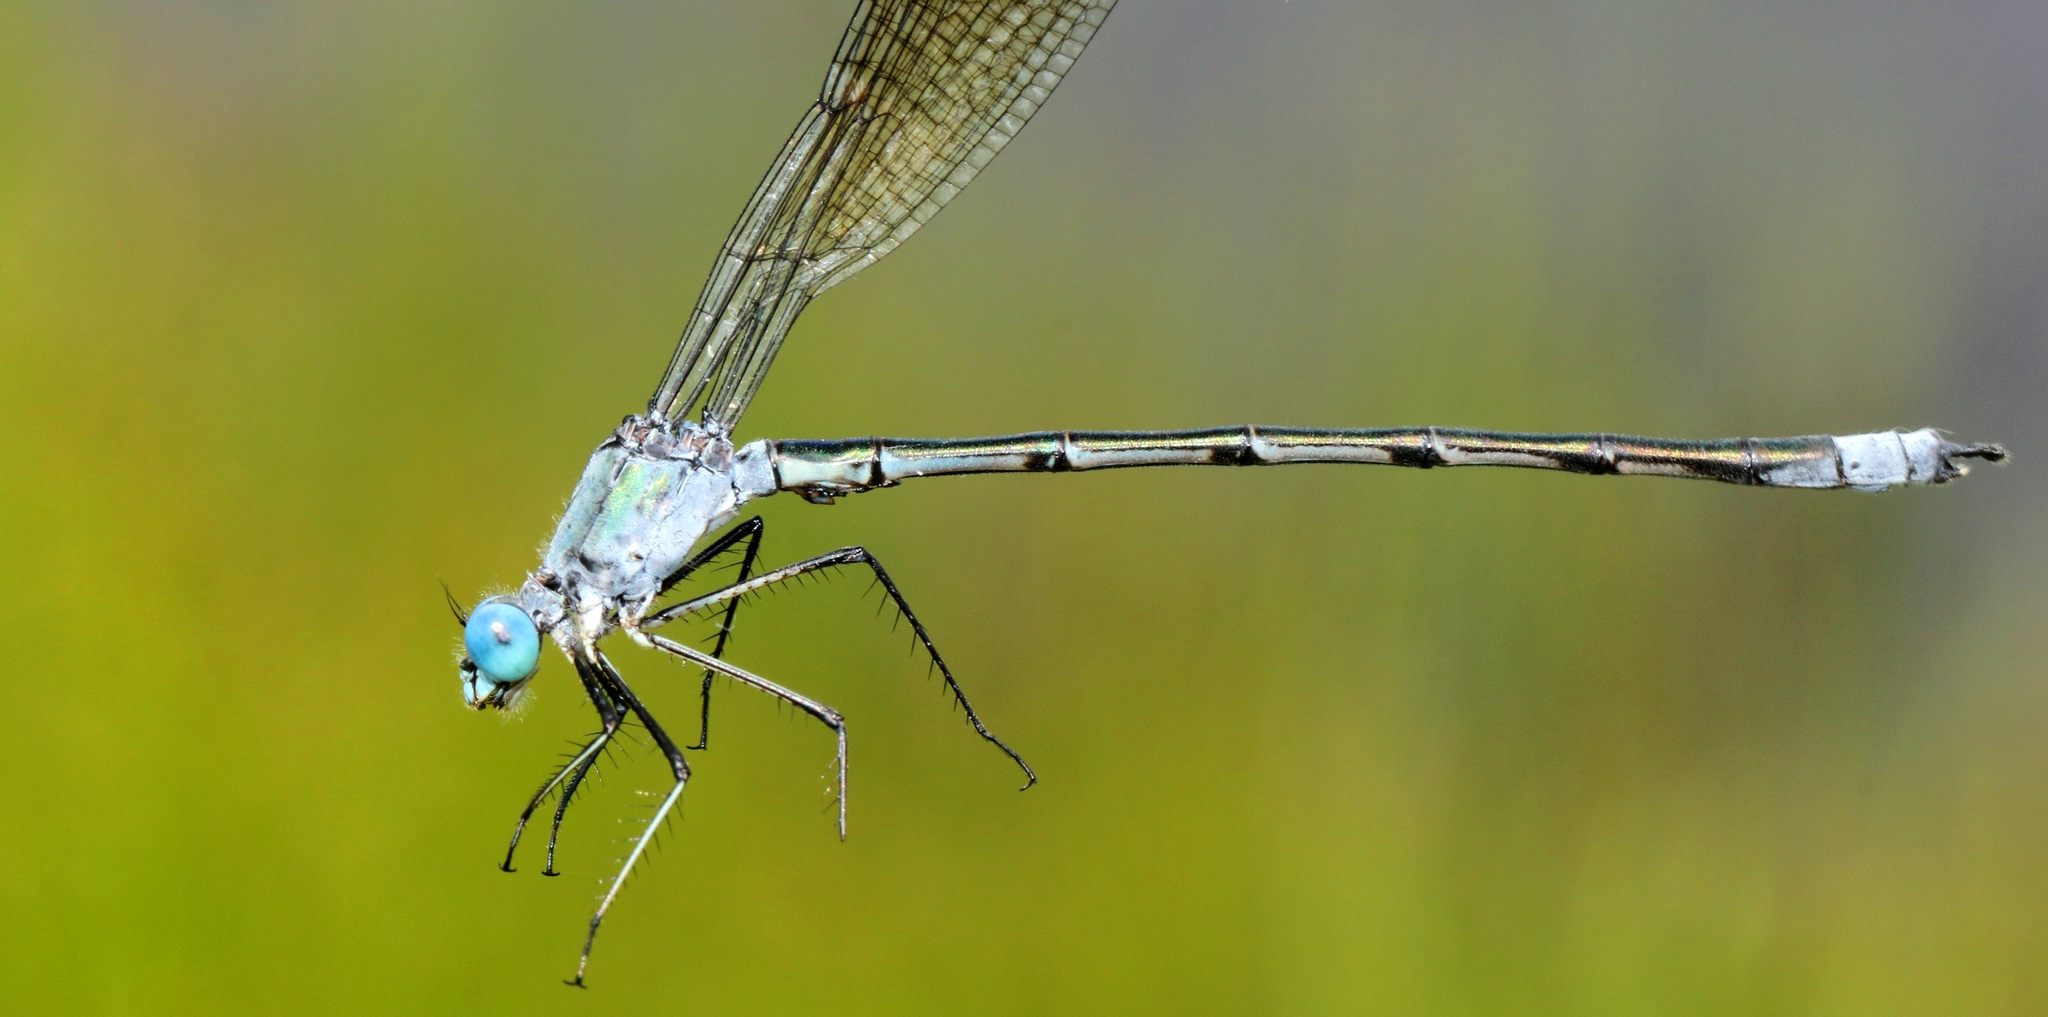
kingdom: Animalia
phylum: Arthropoda
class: Insecta
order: Odonata
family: Lestidae
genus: Lestes
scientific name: Lestes eurinus
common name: Amber-winged spreadwing
